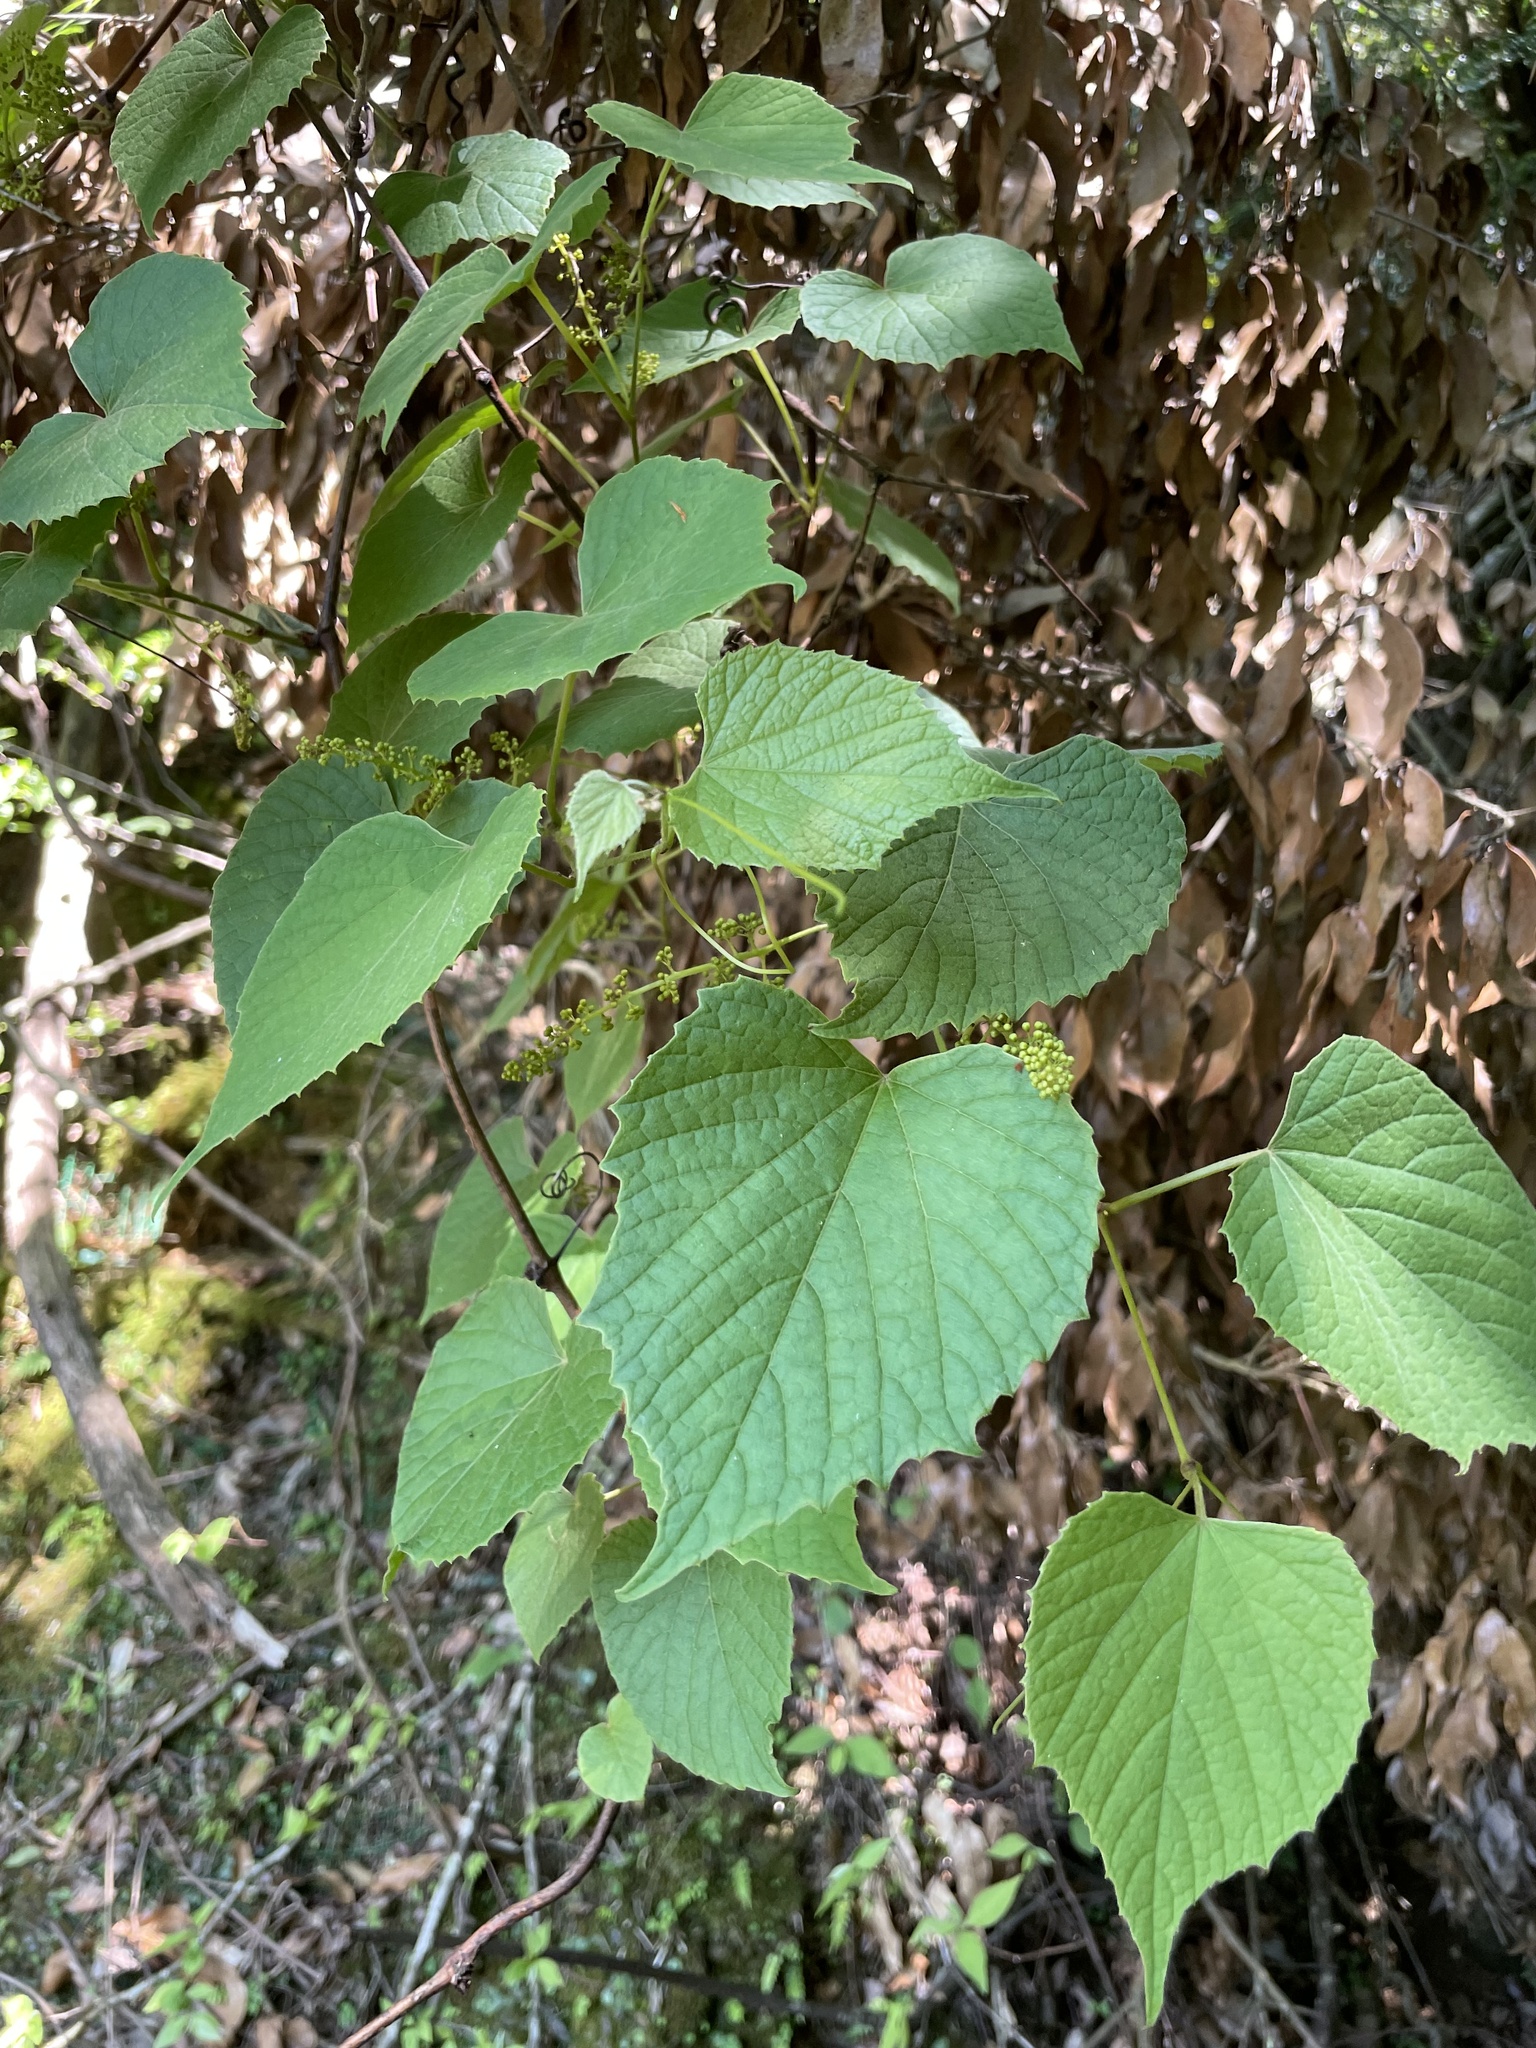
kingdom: Plantae
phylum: Tracheophyta
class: Magnoliopsida
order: Vitales
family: Vitaceae
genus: Vitis
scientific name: Vitis flexuosa
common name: Creeping grape
